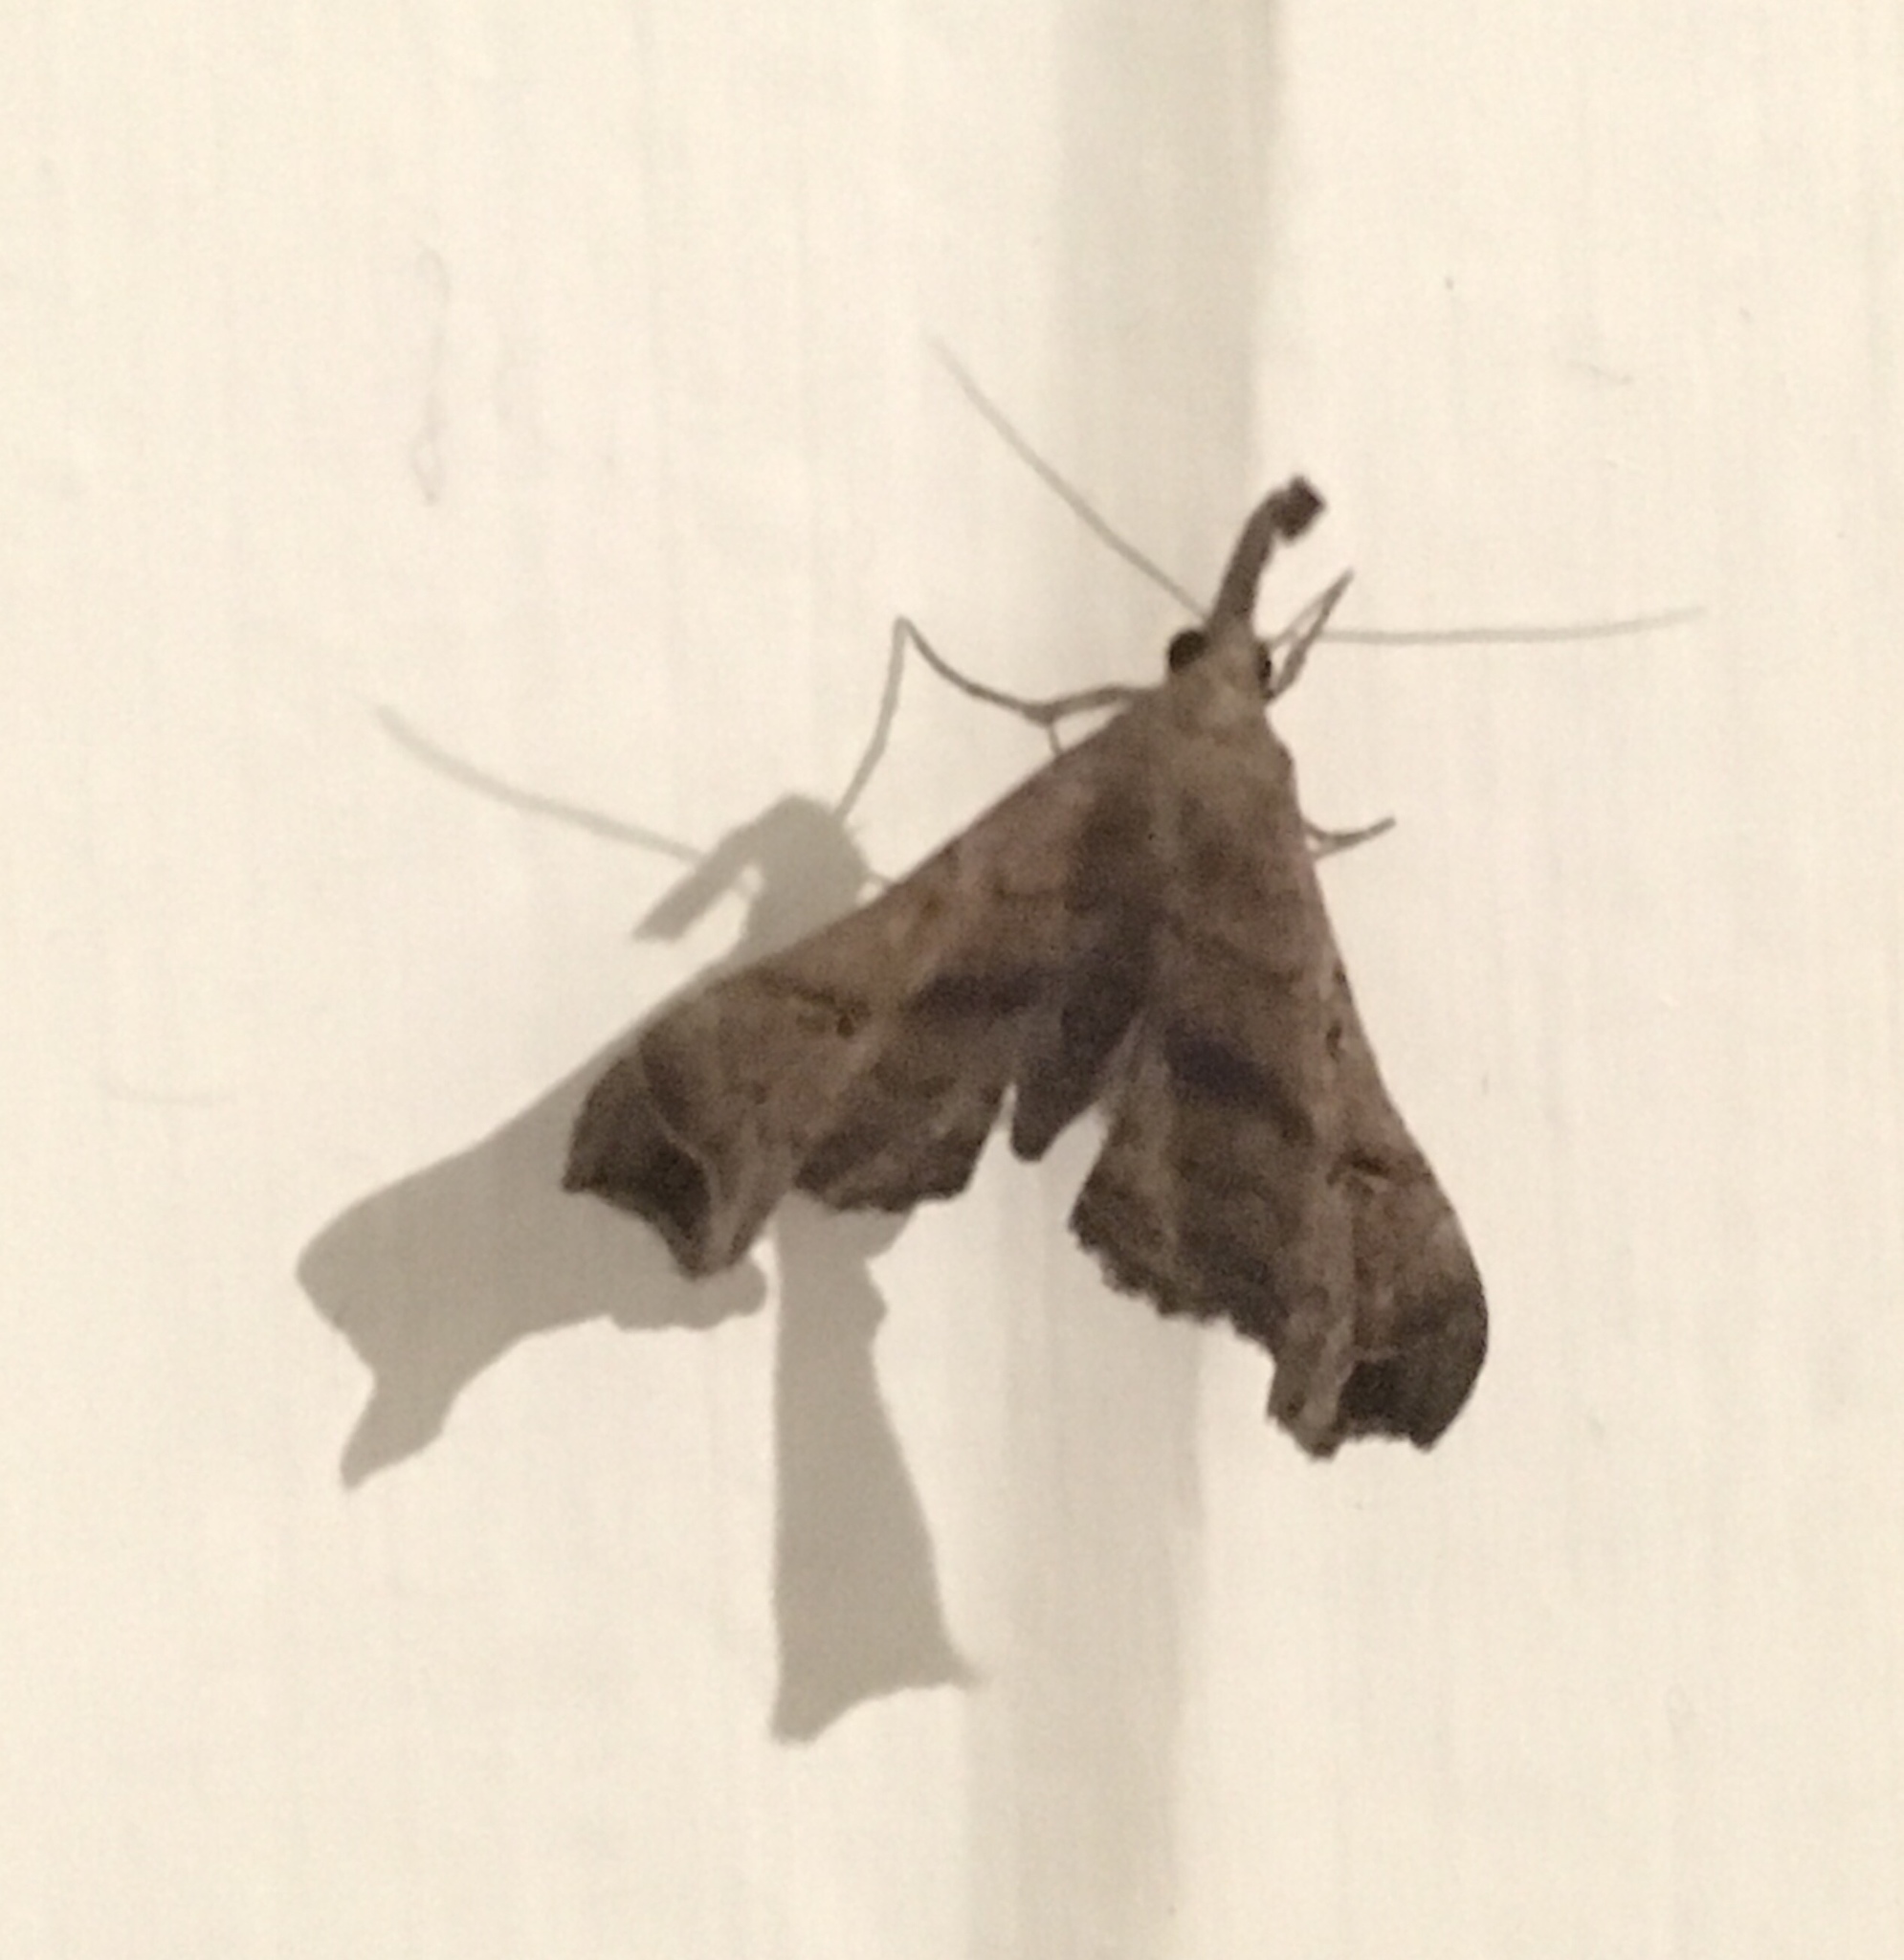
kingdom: Animalia
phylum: Arthropoda
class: Insecta
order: Lepidoptera
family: Erebidae
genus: Palthis
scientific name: Palthis asopialis
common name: Faint-spotted palthis moth
